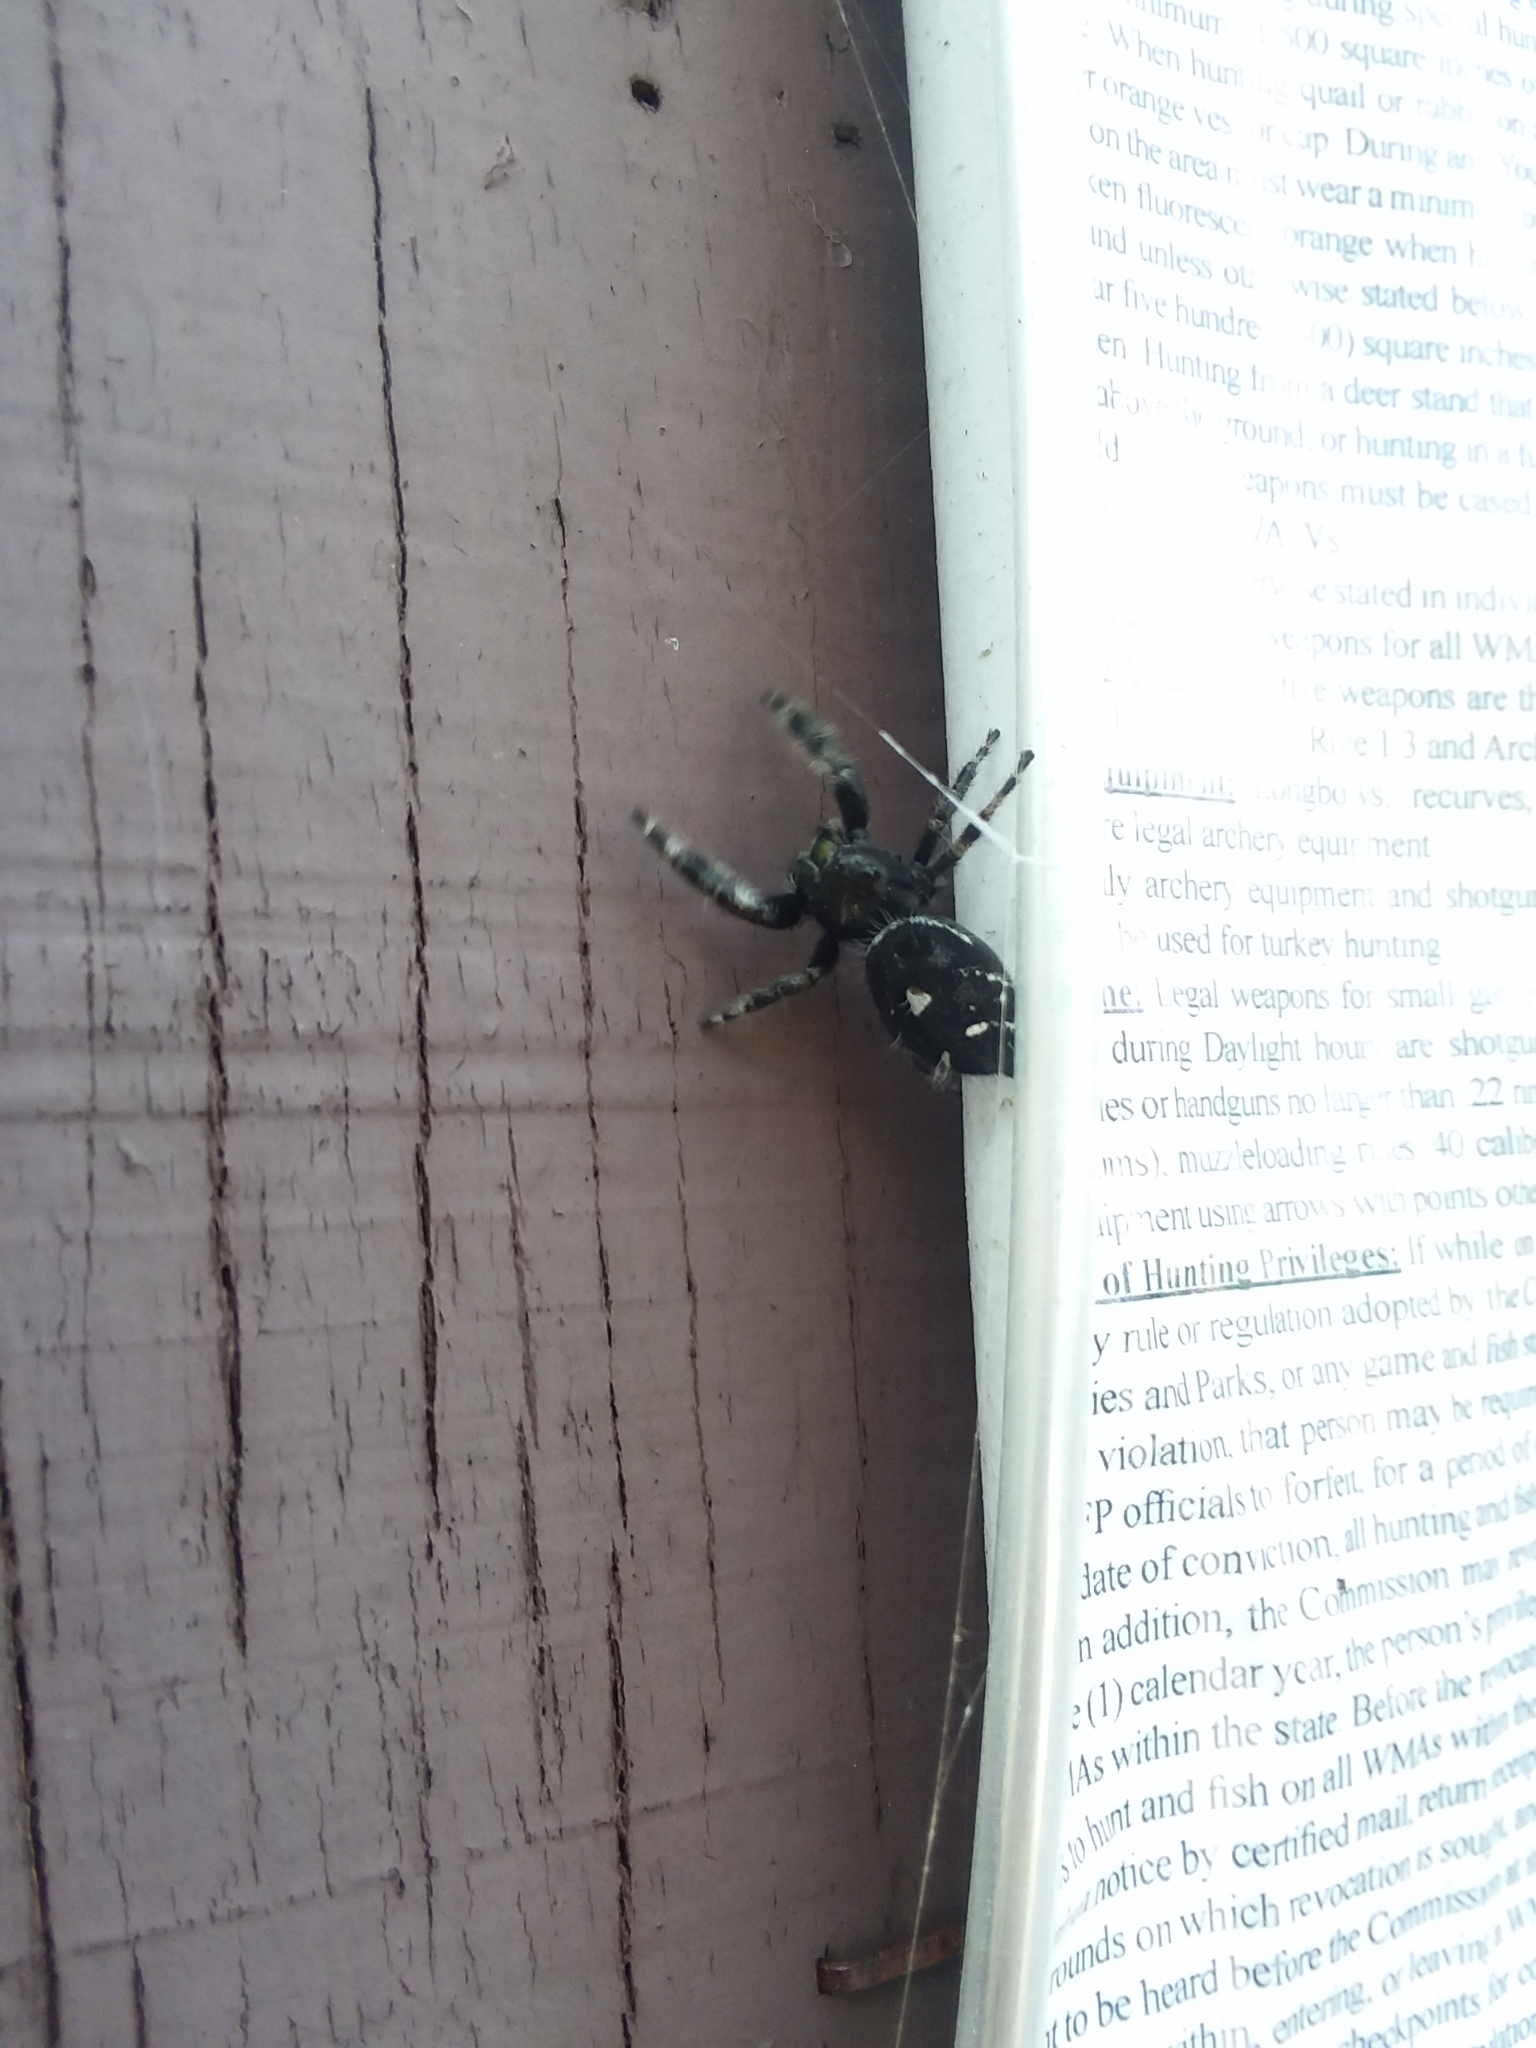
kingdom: Animalia
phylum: Arthropoda
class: Arachnida
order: Araneae
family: Salticidae
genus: Phidippus
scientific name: Phidippus audax
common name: Bold jumper
